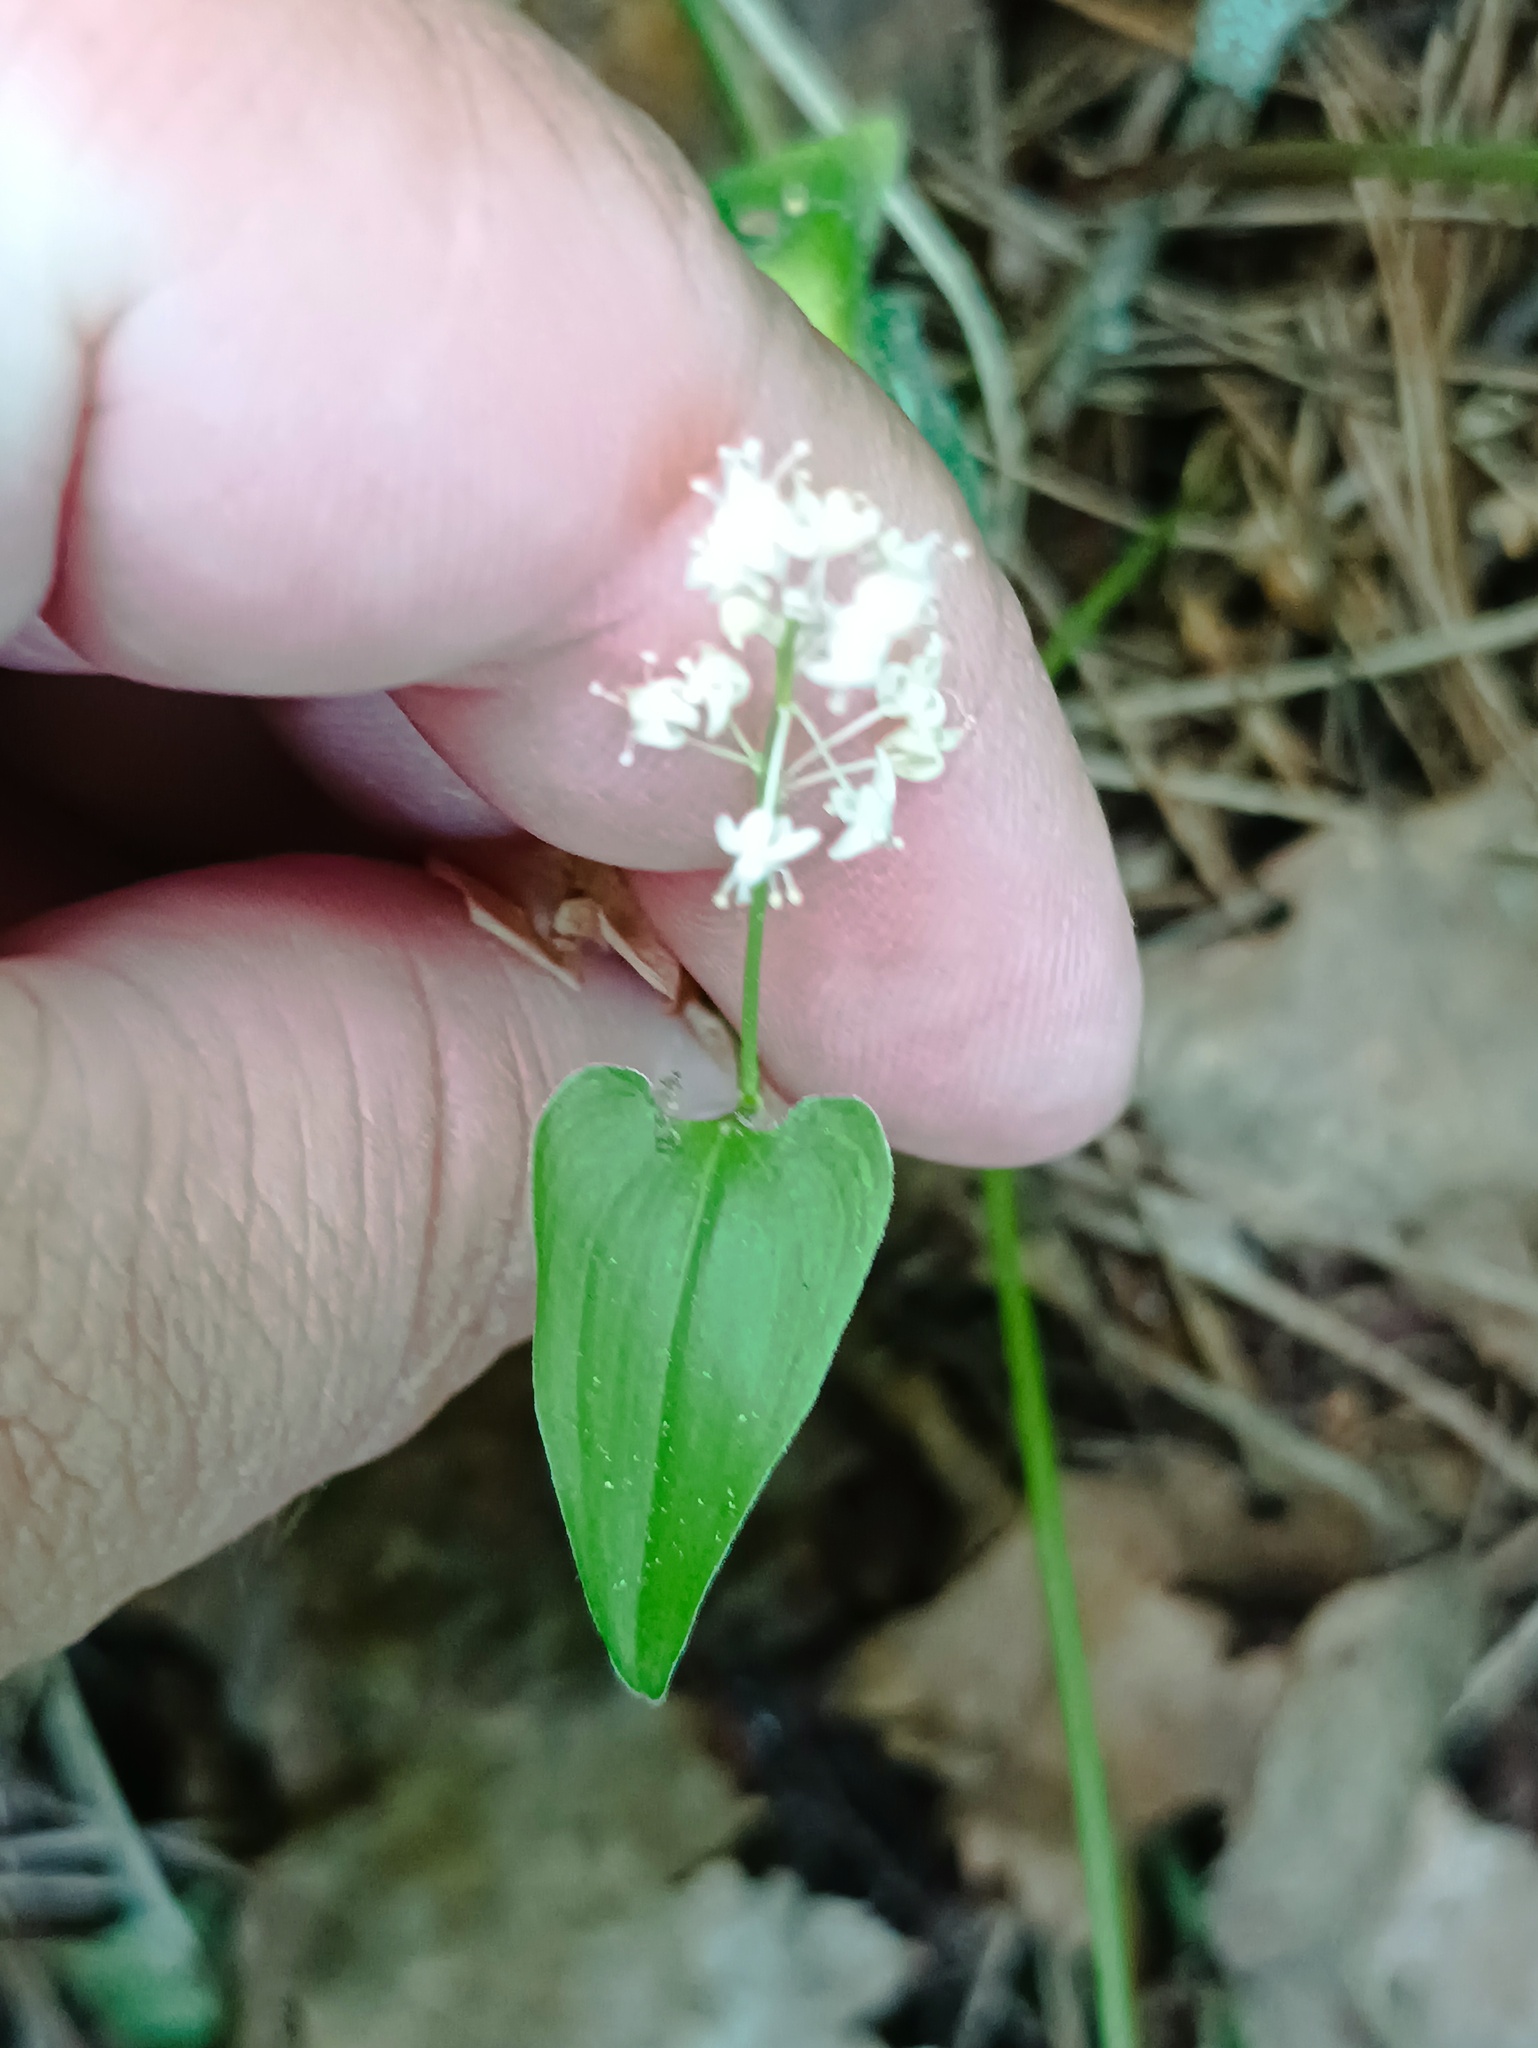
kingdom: Plantae
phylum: Tracheophyta
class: Liliopsida
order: Asparagales
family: Asparagaceae
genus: Maianthemum
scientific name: Maianthemum bifolium
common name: May lily
